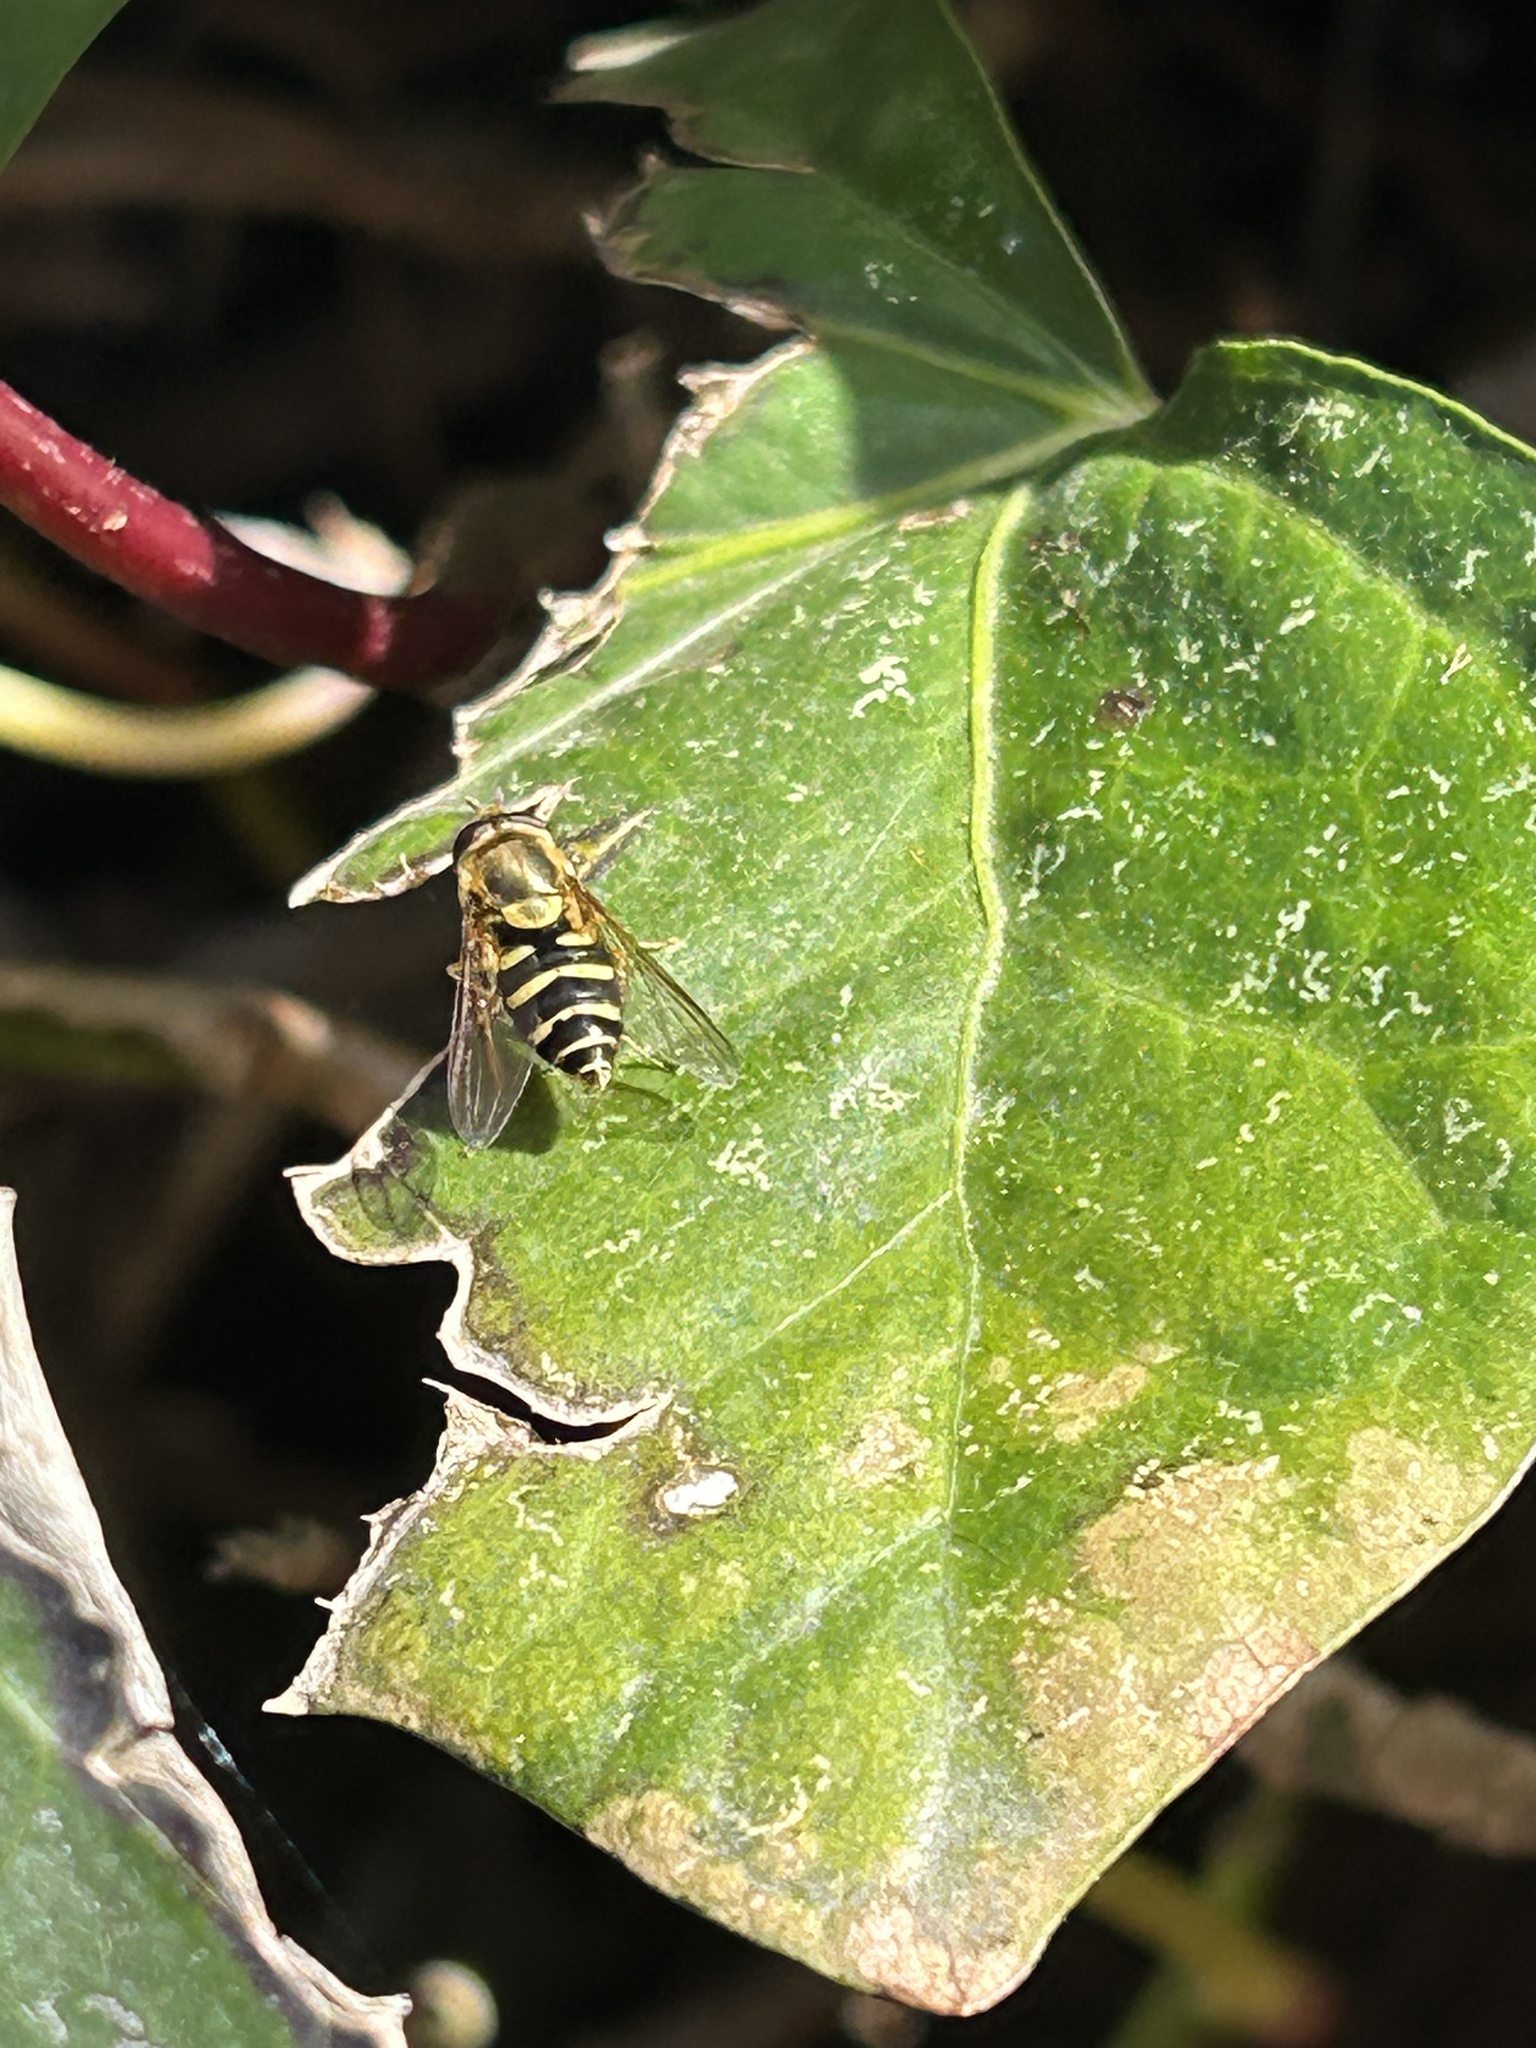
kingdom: Animalia
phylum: Arthropoda
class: Insecta
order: Diptera
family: Syrphidae
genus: Syrphus
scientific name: Syrphus opinator
